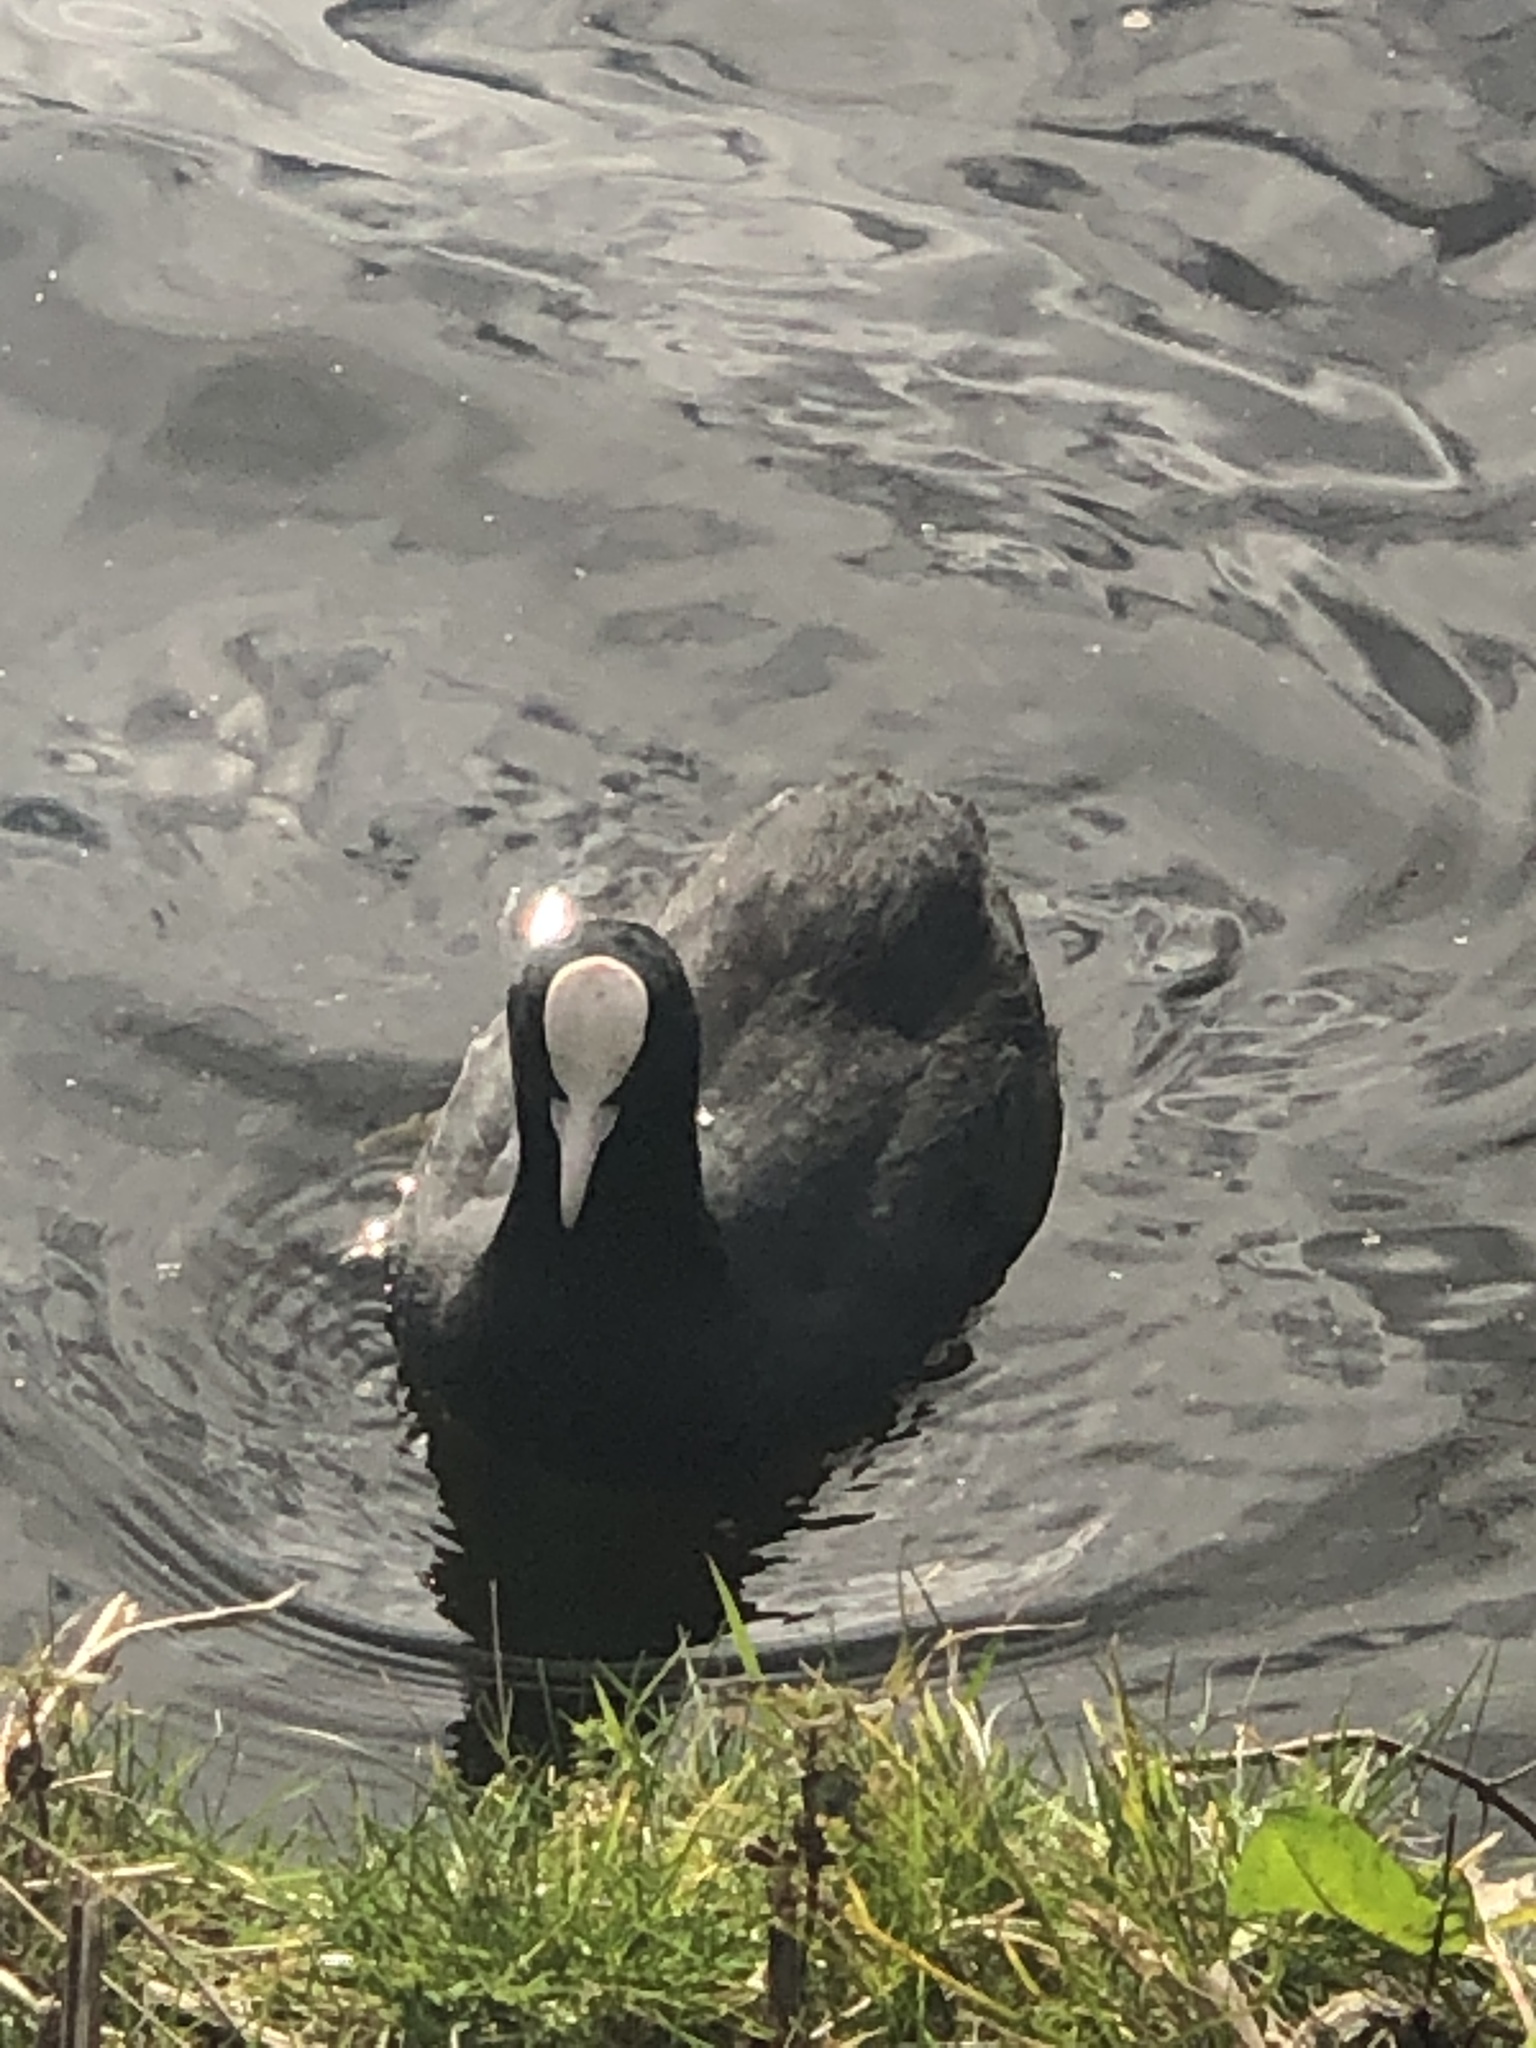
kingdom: Animalia
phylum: Chordata
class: Aves
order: Gruiformes
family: Rallidae
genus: Fulica
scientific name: Fulica atra
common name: Eurasian coot
